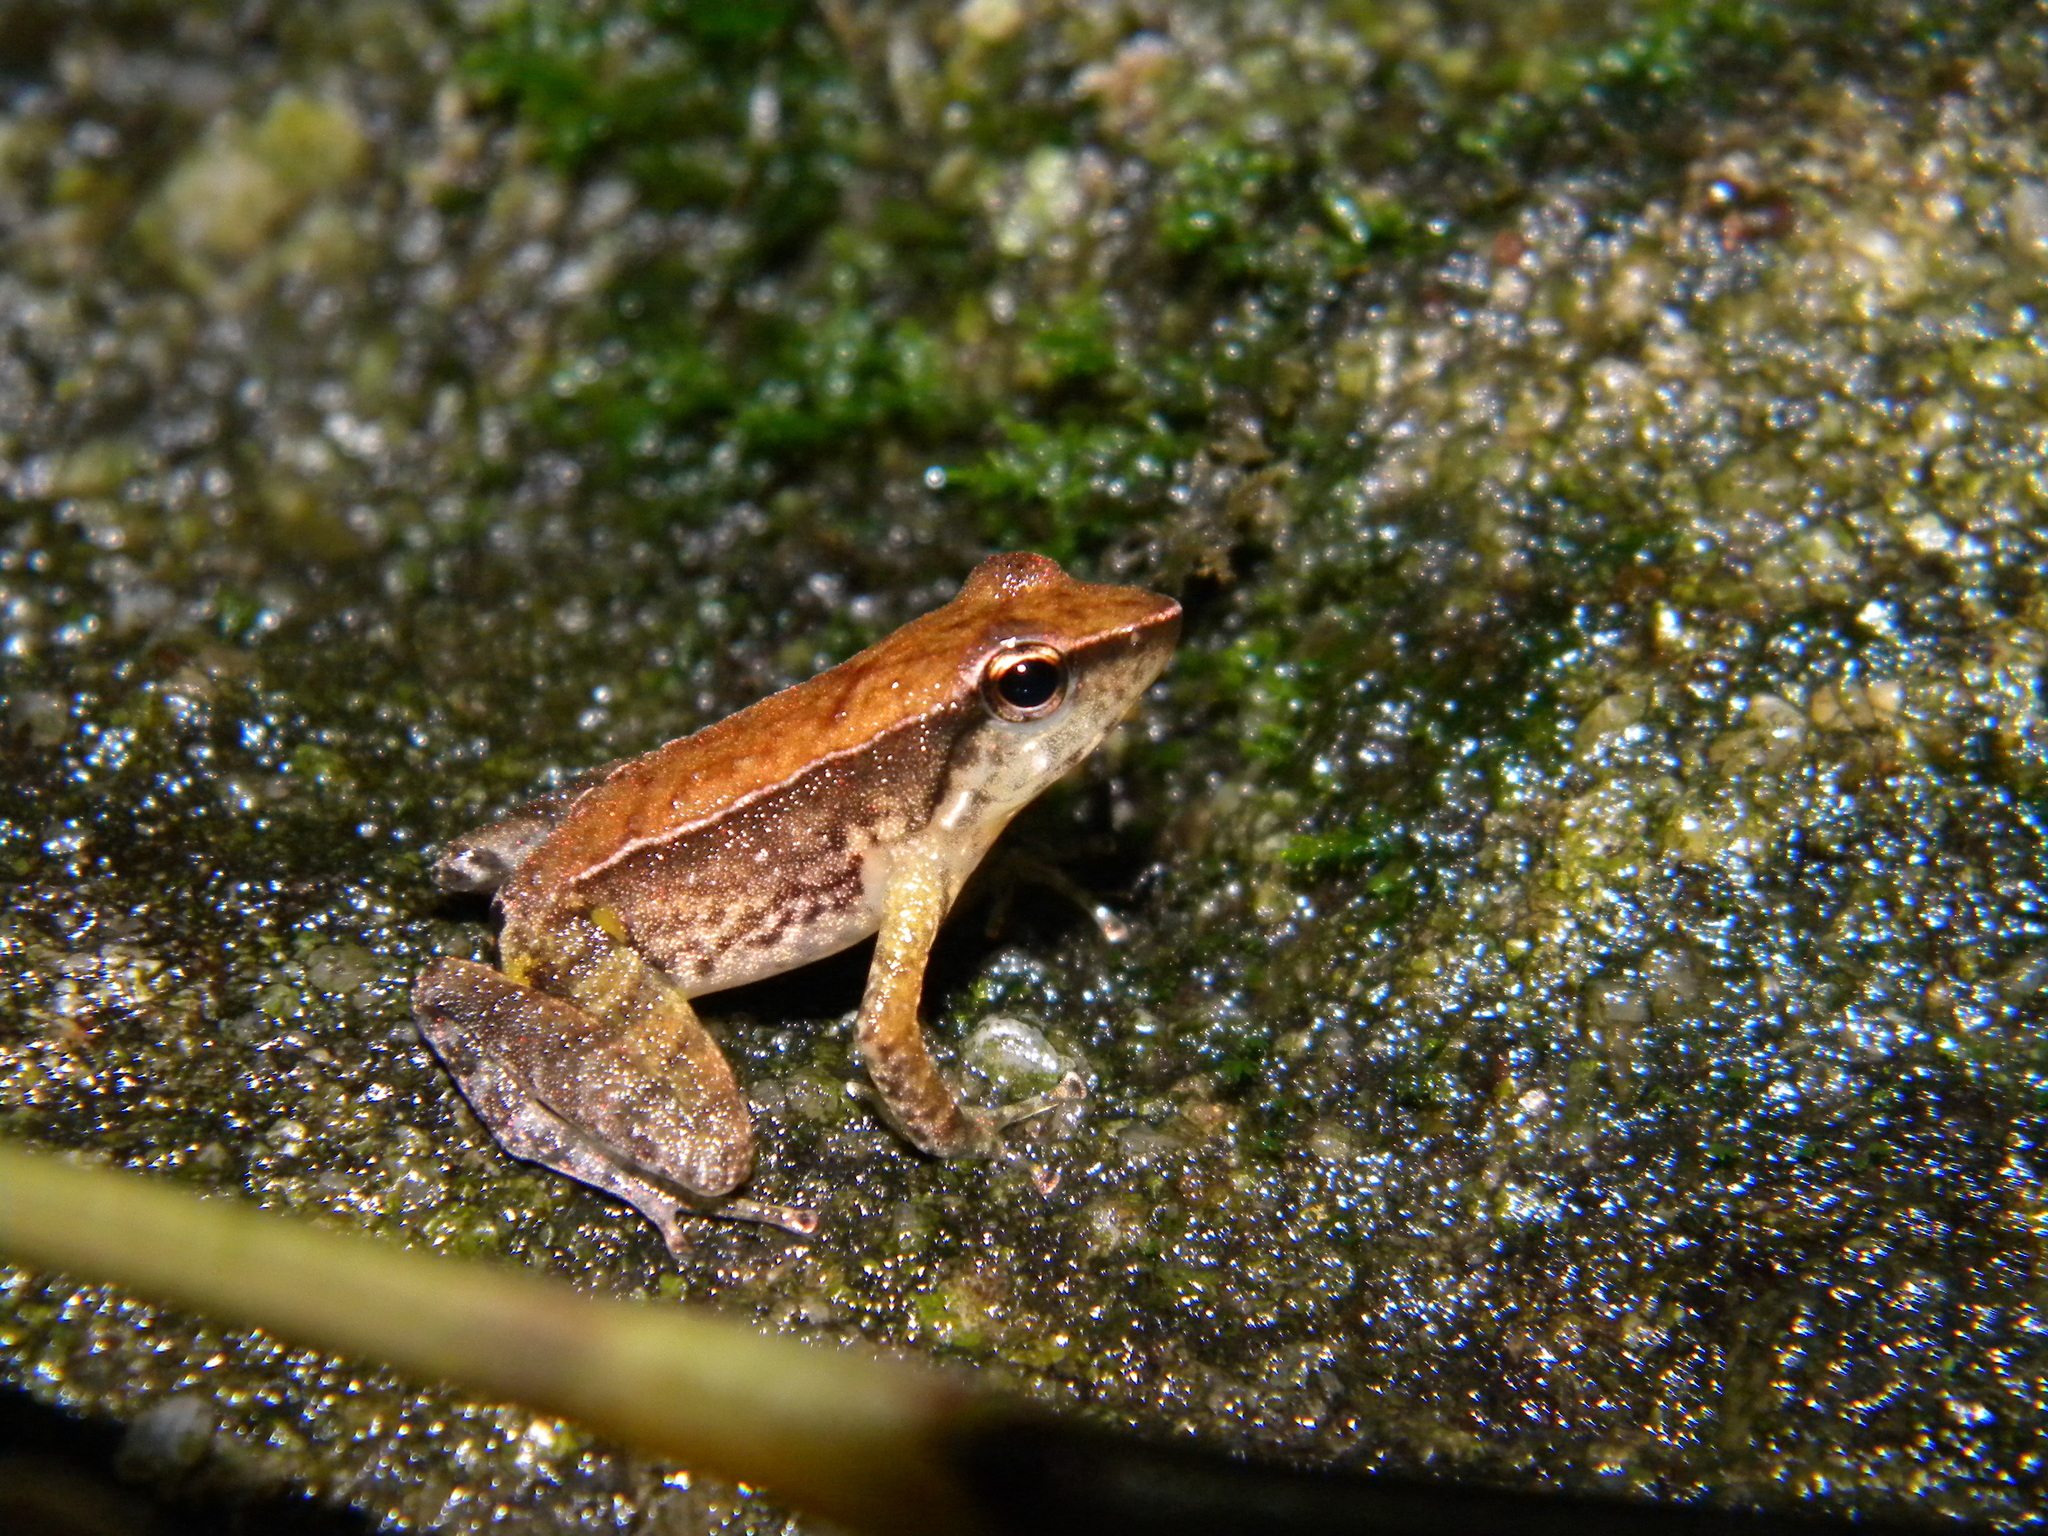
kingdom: Animalia
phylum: Chordata
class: Amphibia
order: Anura
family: Micrixalidae
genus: Micrixalus
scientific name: Micrixalus herrei
